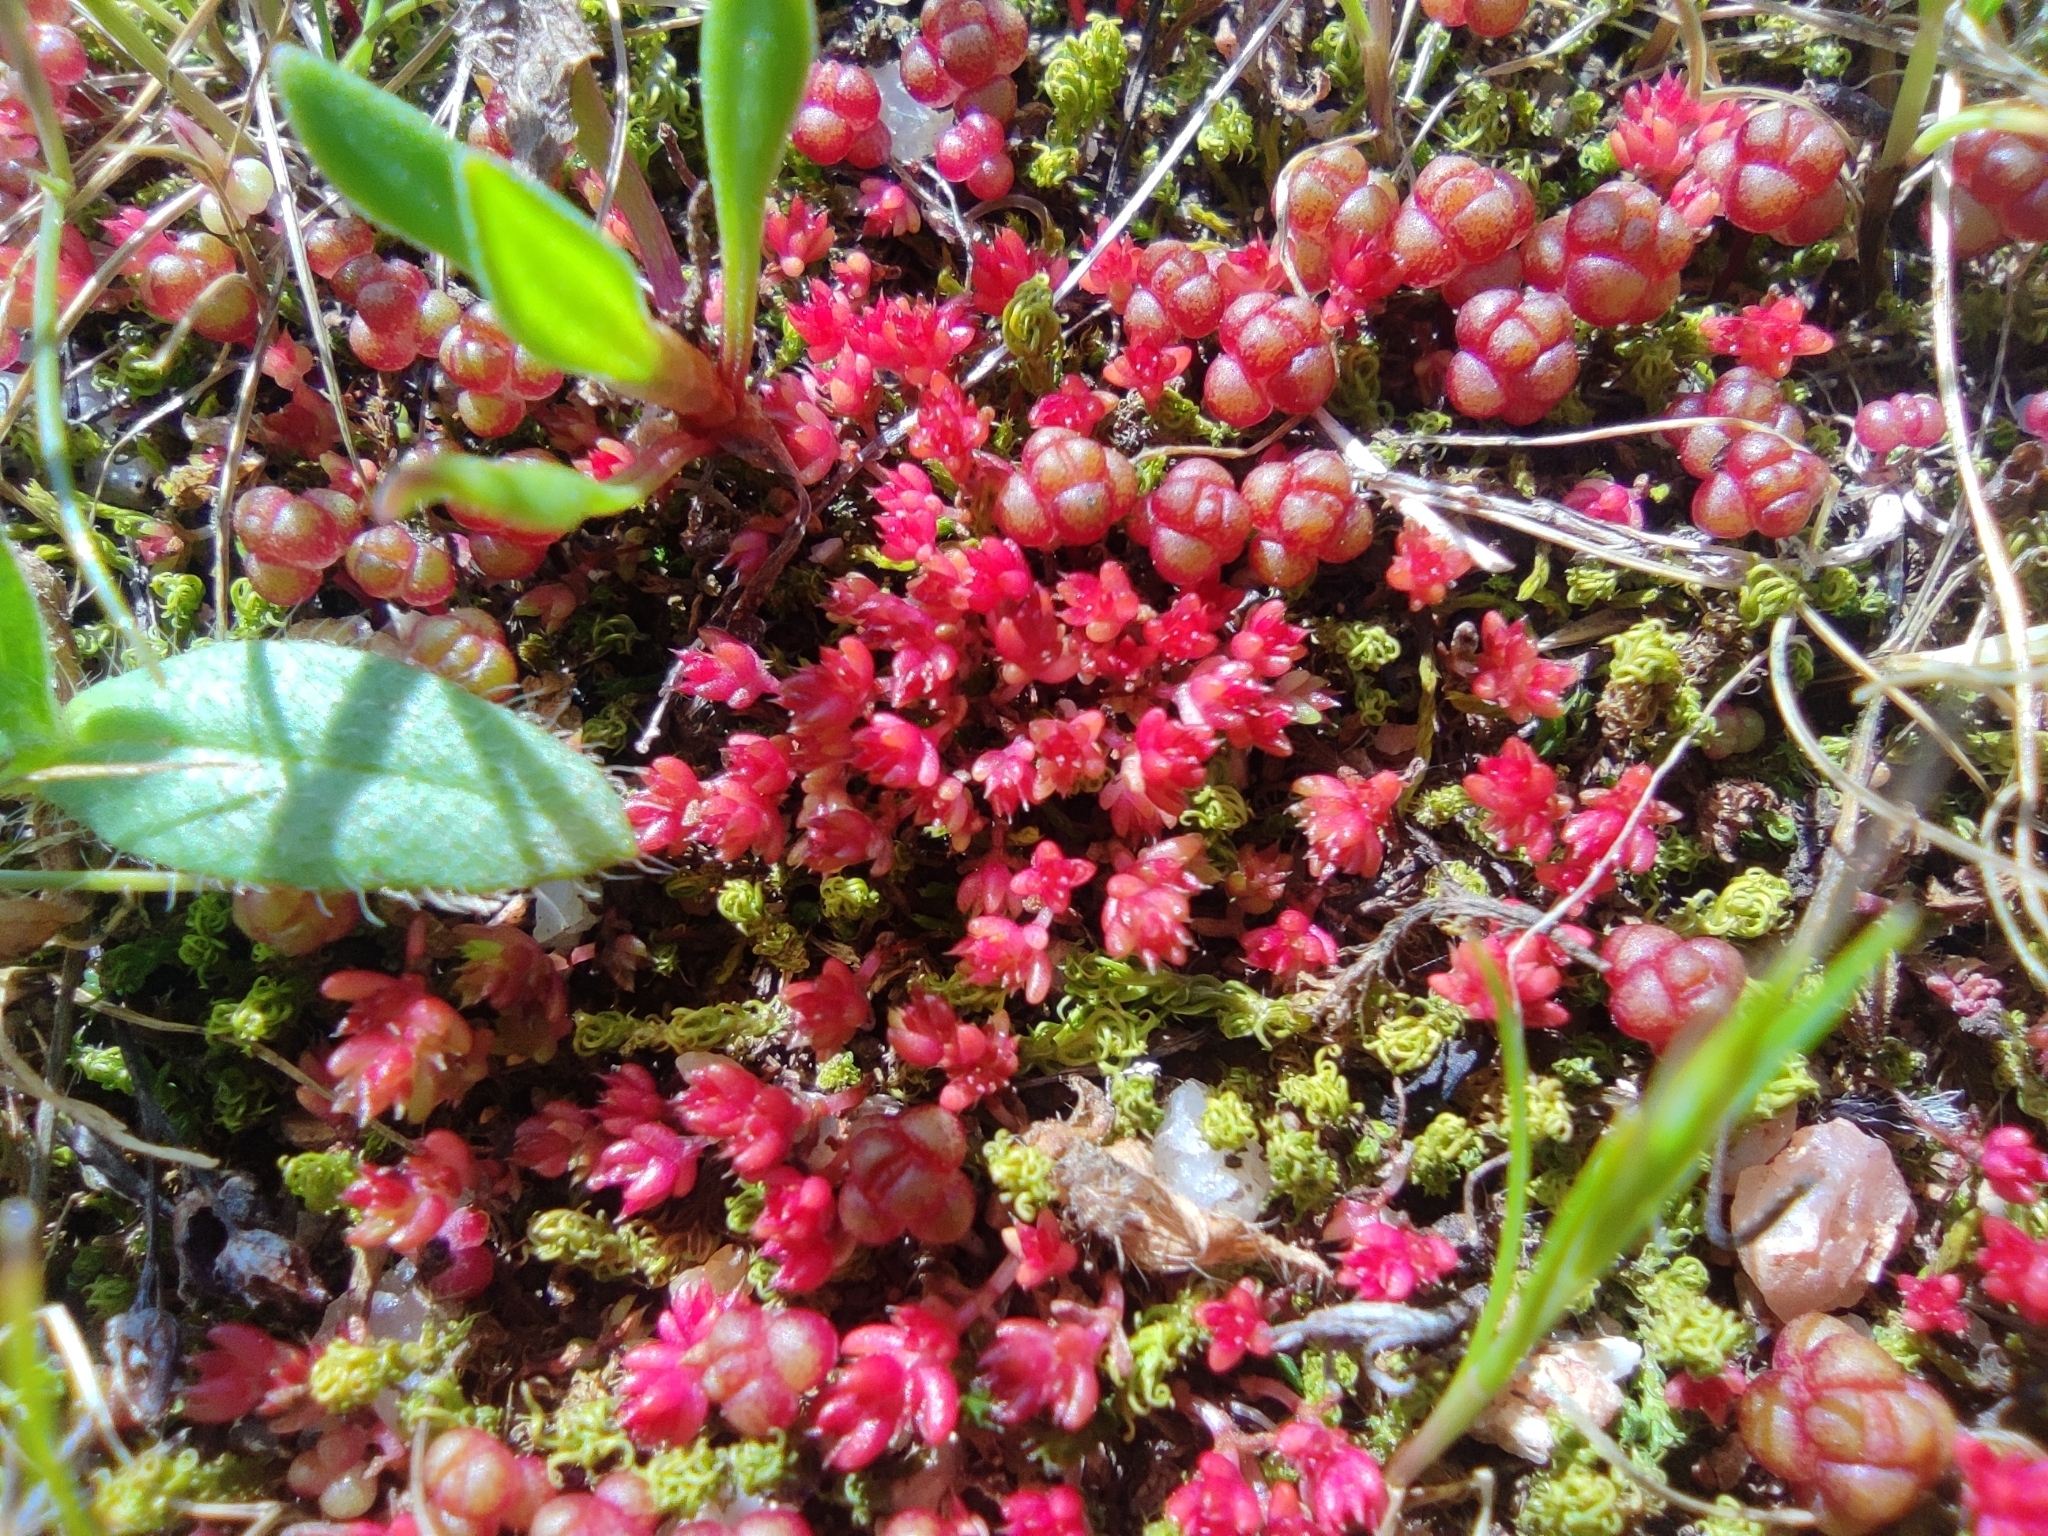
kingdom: Plantae
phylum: Tracheophyta
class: Magnoliopsida
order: Saxifragales
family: Crassulaceae
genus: Sedum
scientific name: Sedum cespitosum
